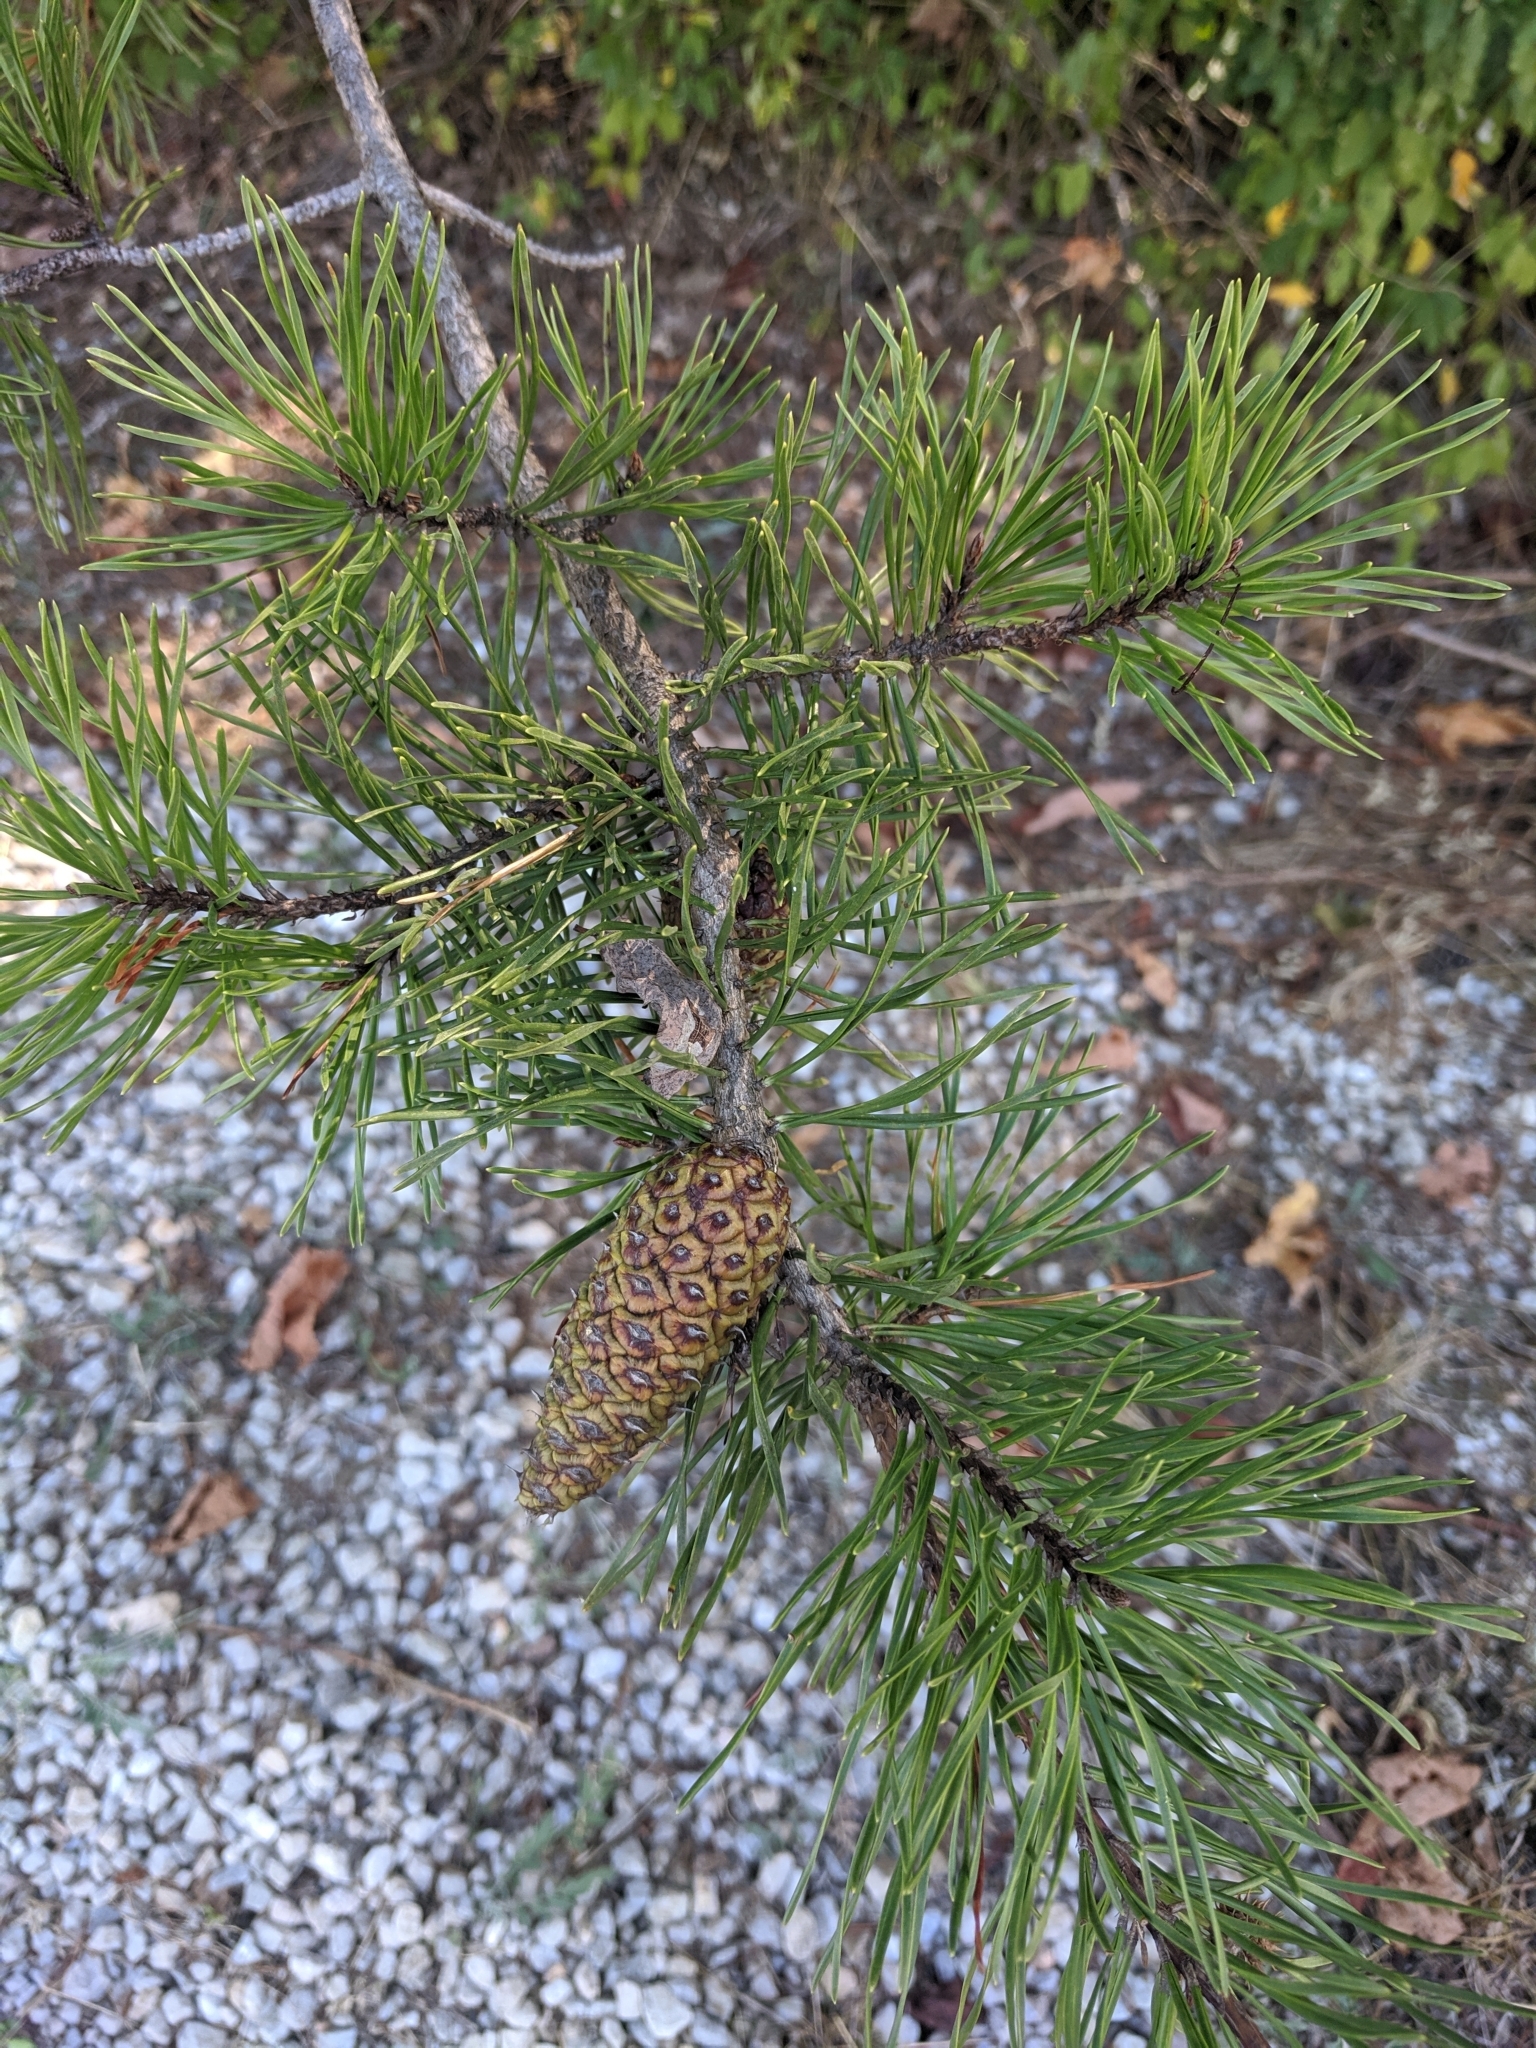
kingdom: Plantae
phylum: Tracheophyta
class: Pinopsida
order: Pinales
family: Pinaceae
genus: Pinus
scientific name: Pinus echinata
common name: Shortleaf pine
